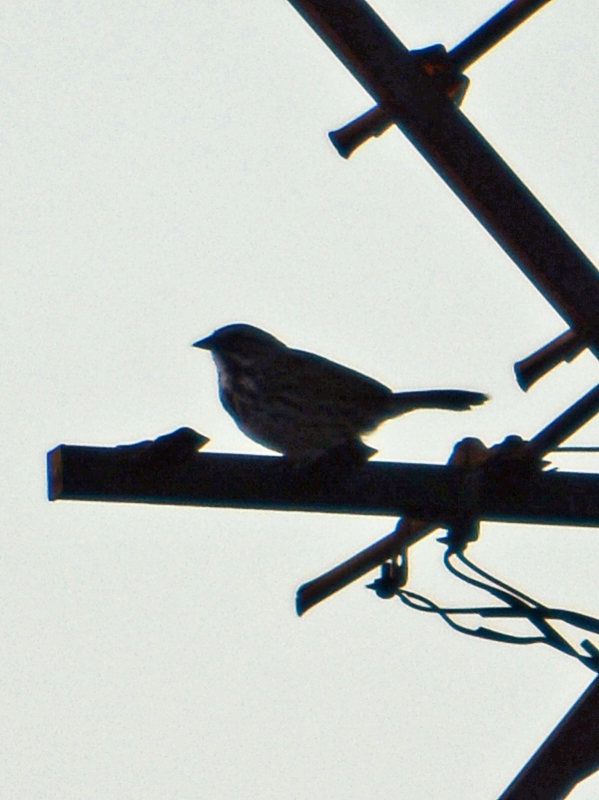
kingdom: Animalia
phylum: Chordata
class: Aves
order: Passeriformes
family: Passerellidae
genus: Melospiza
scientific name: Melospiza melodia
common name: Song sparrow
